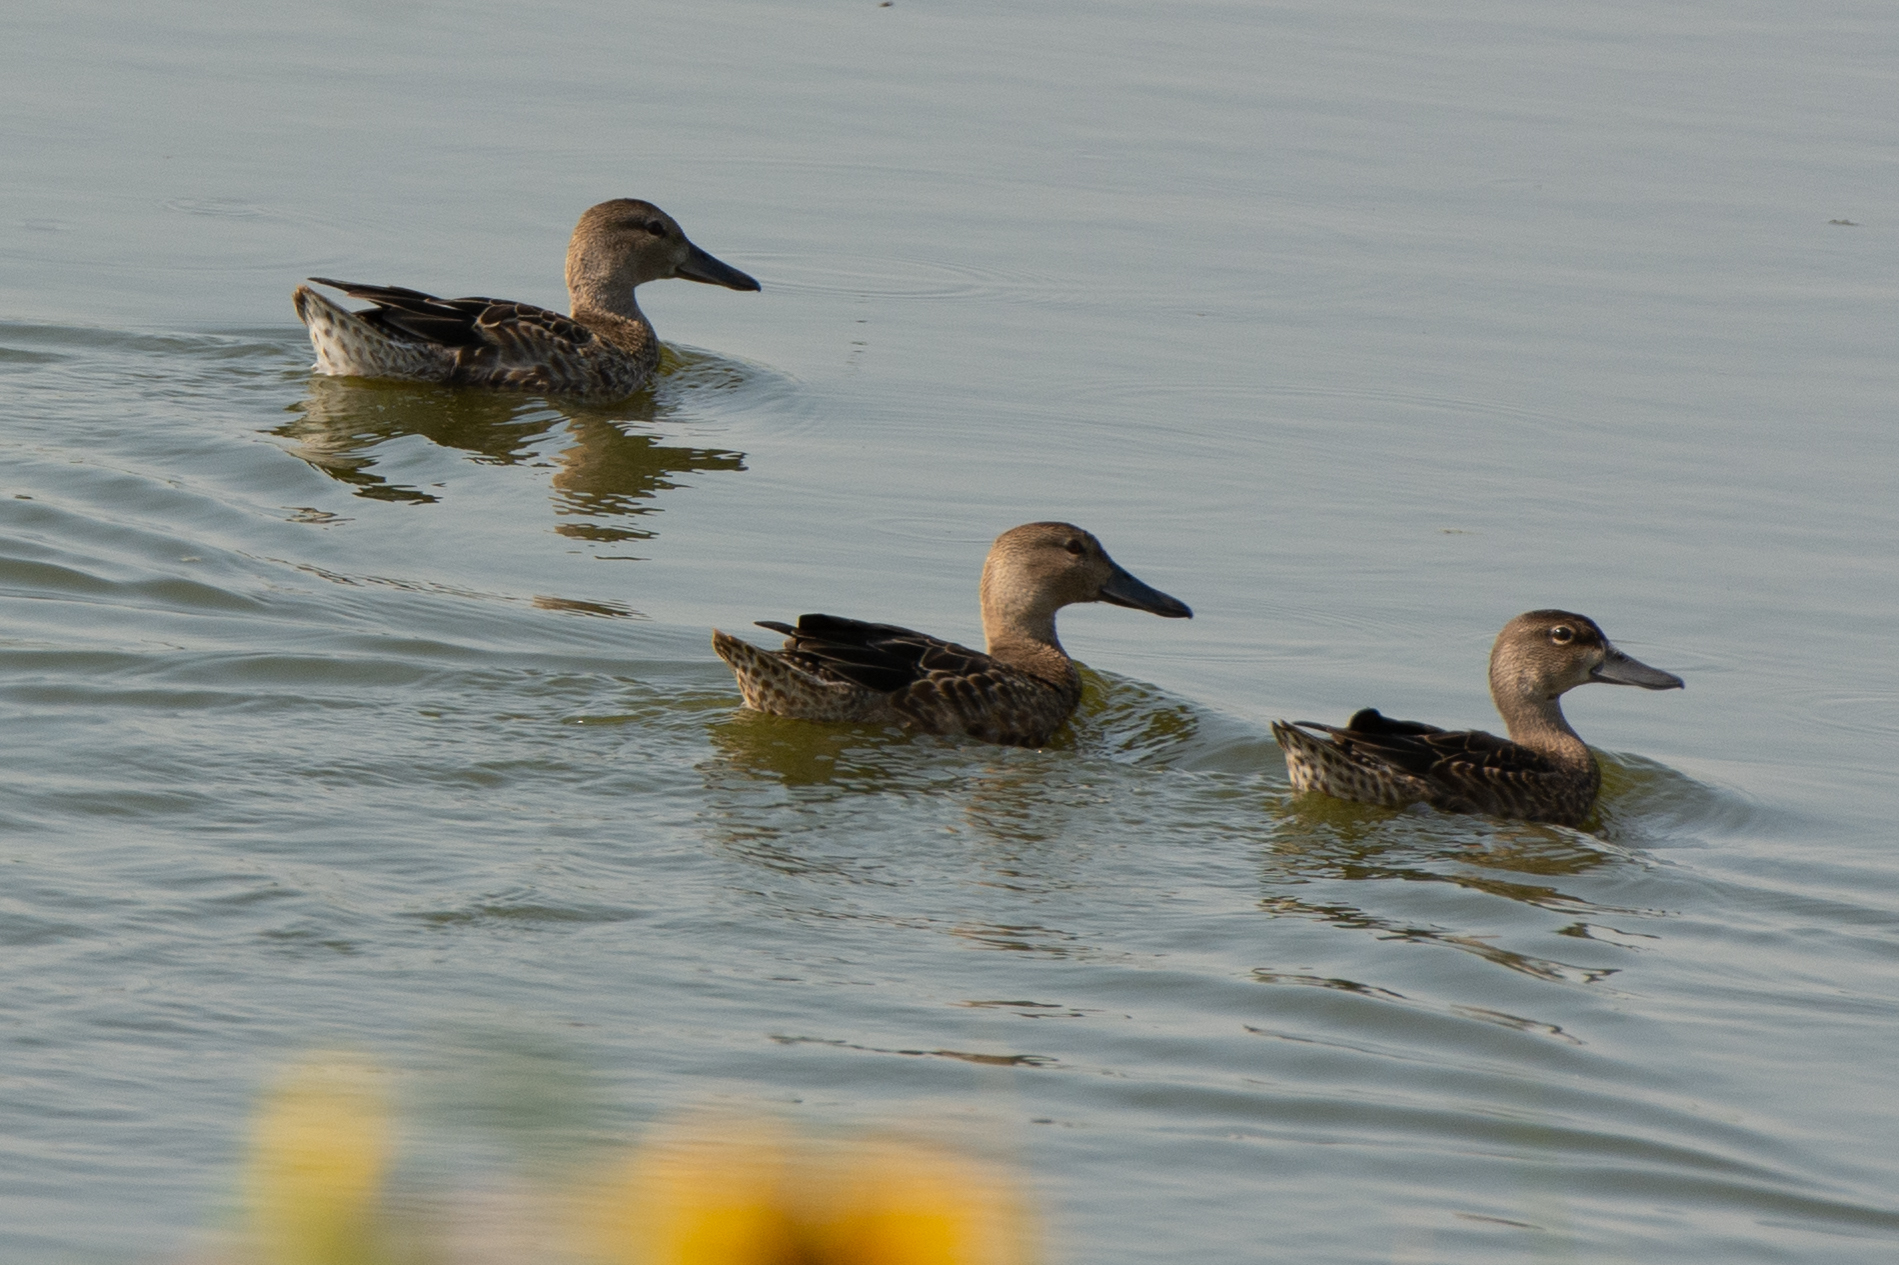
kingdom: Animalia
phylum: Chordata
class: Aves
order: Anseriformes
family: Anatidae
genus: Spatula
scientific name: Spatula cyanoptera
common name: Cinnamon teal
